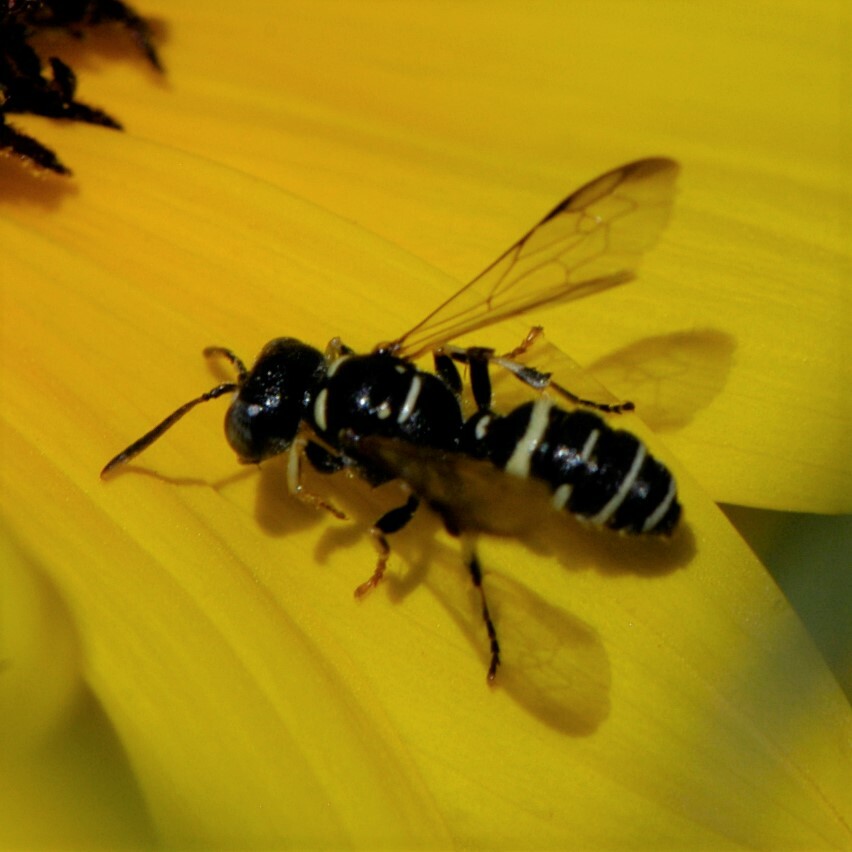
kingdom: Animalia
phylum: Arthropoda
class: Insecta
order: Hymenoptera
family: Crabronidae
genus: Cerceris
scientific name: Cerceris convergens
